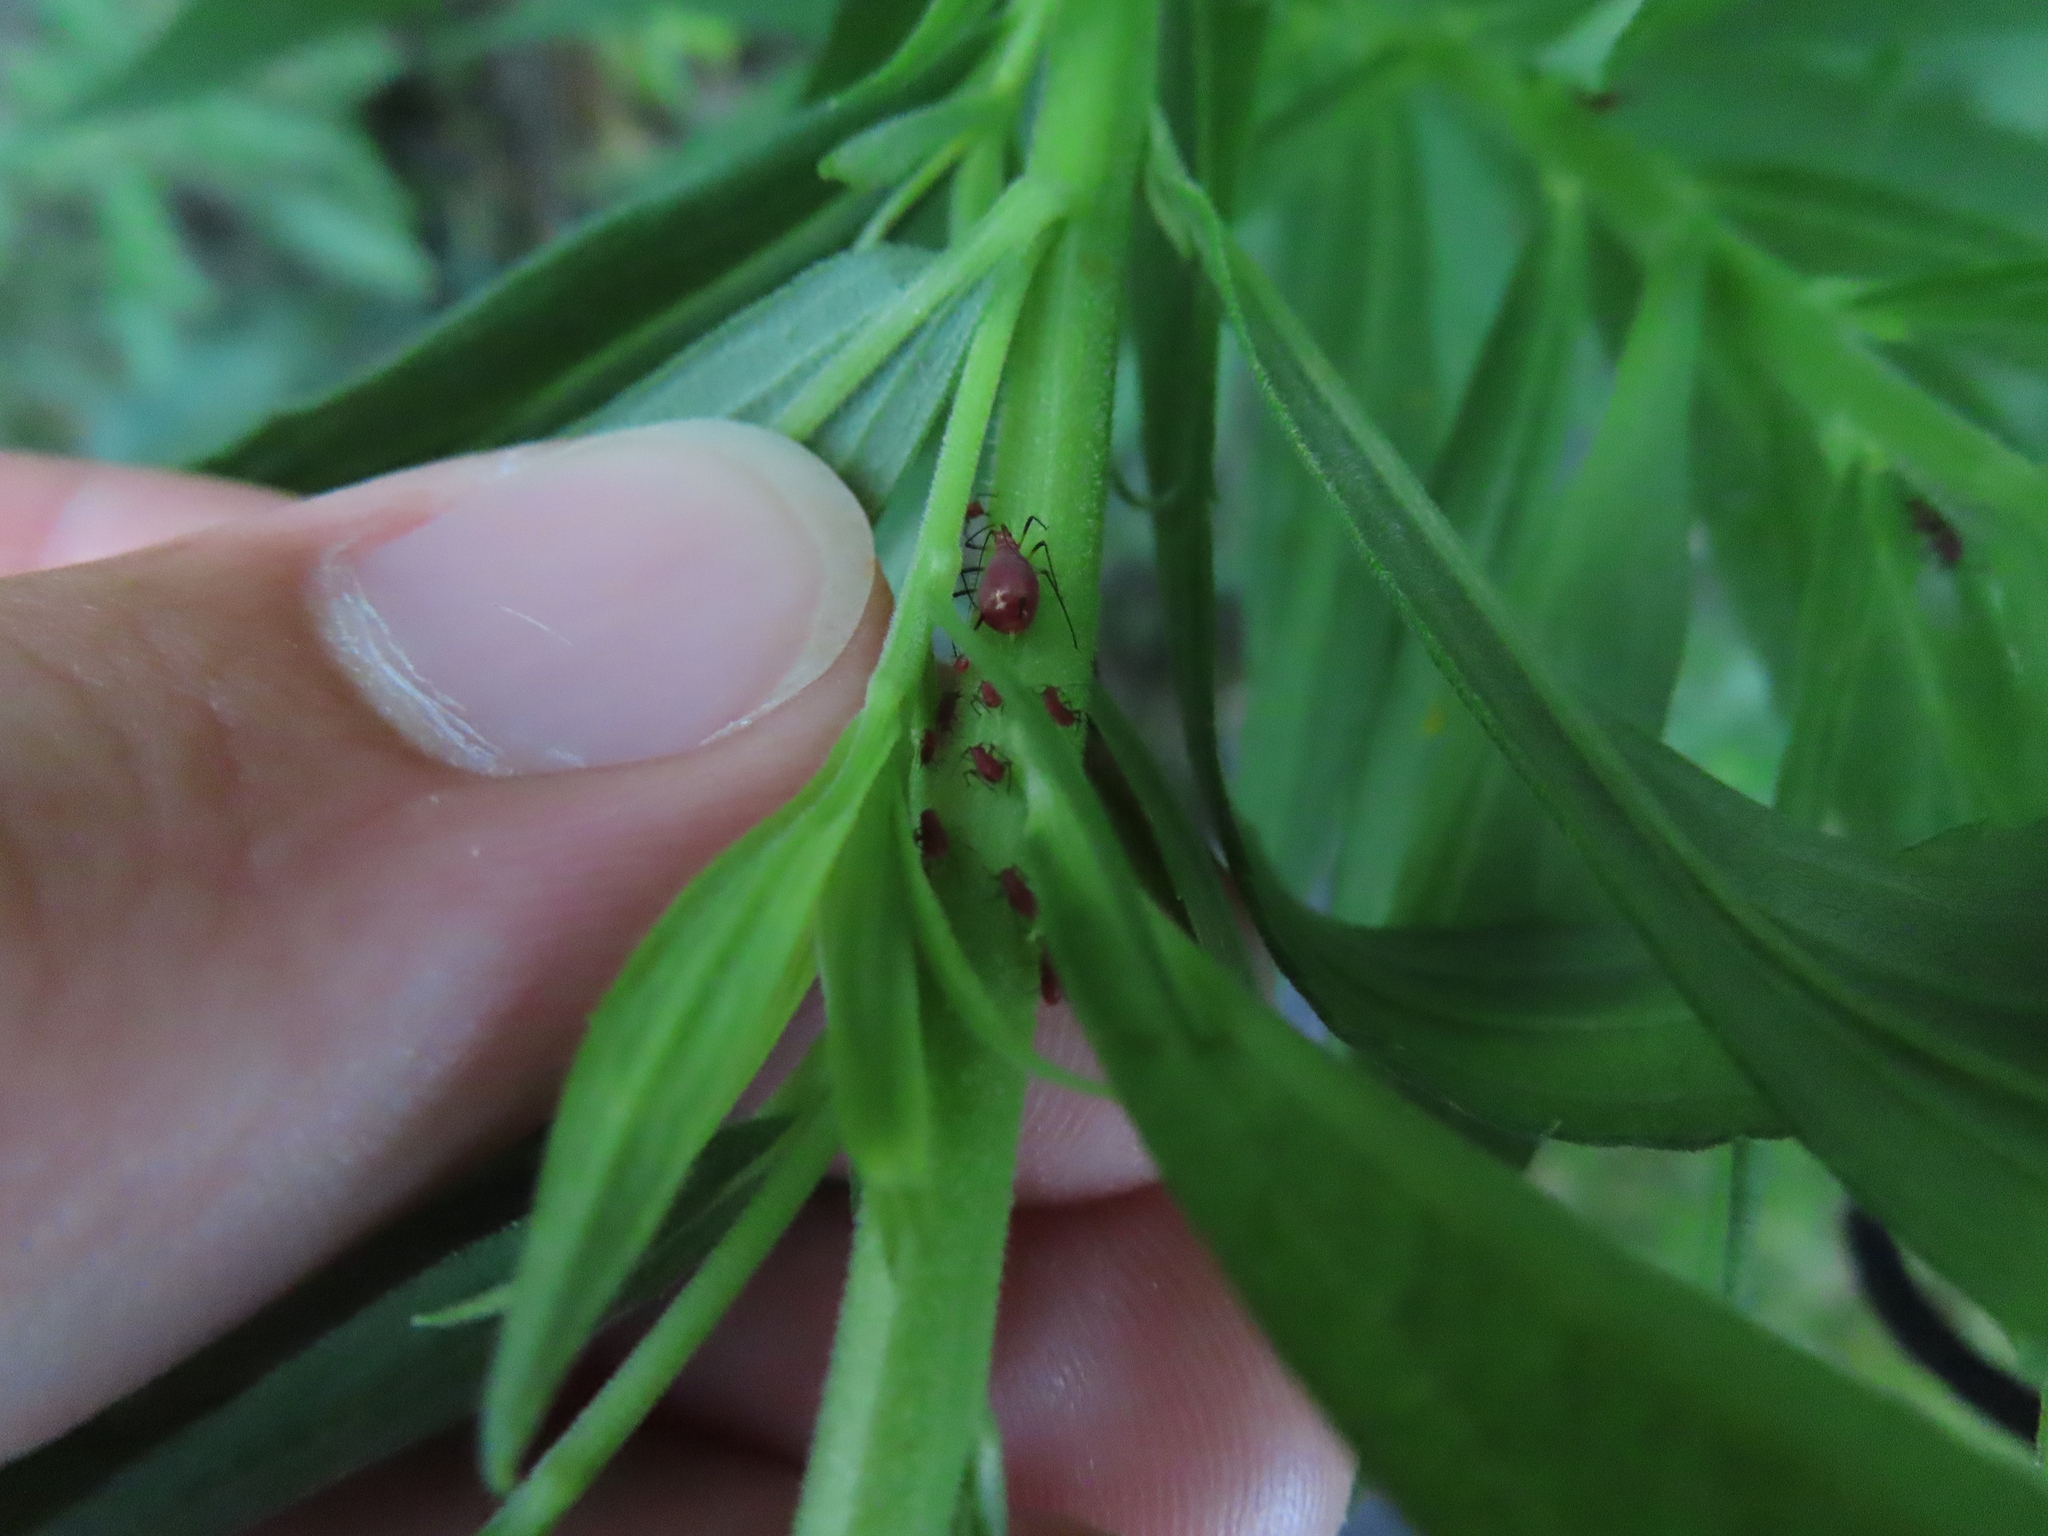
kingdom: Animalia
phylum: Arthropoda
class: Insecta
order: Hemiptera
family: Aphididae
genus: Uroleucon
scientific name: Uroleucon
